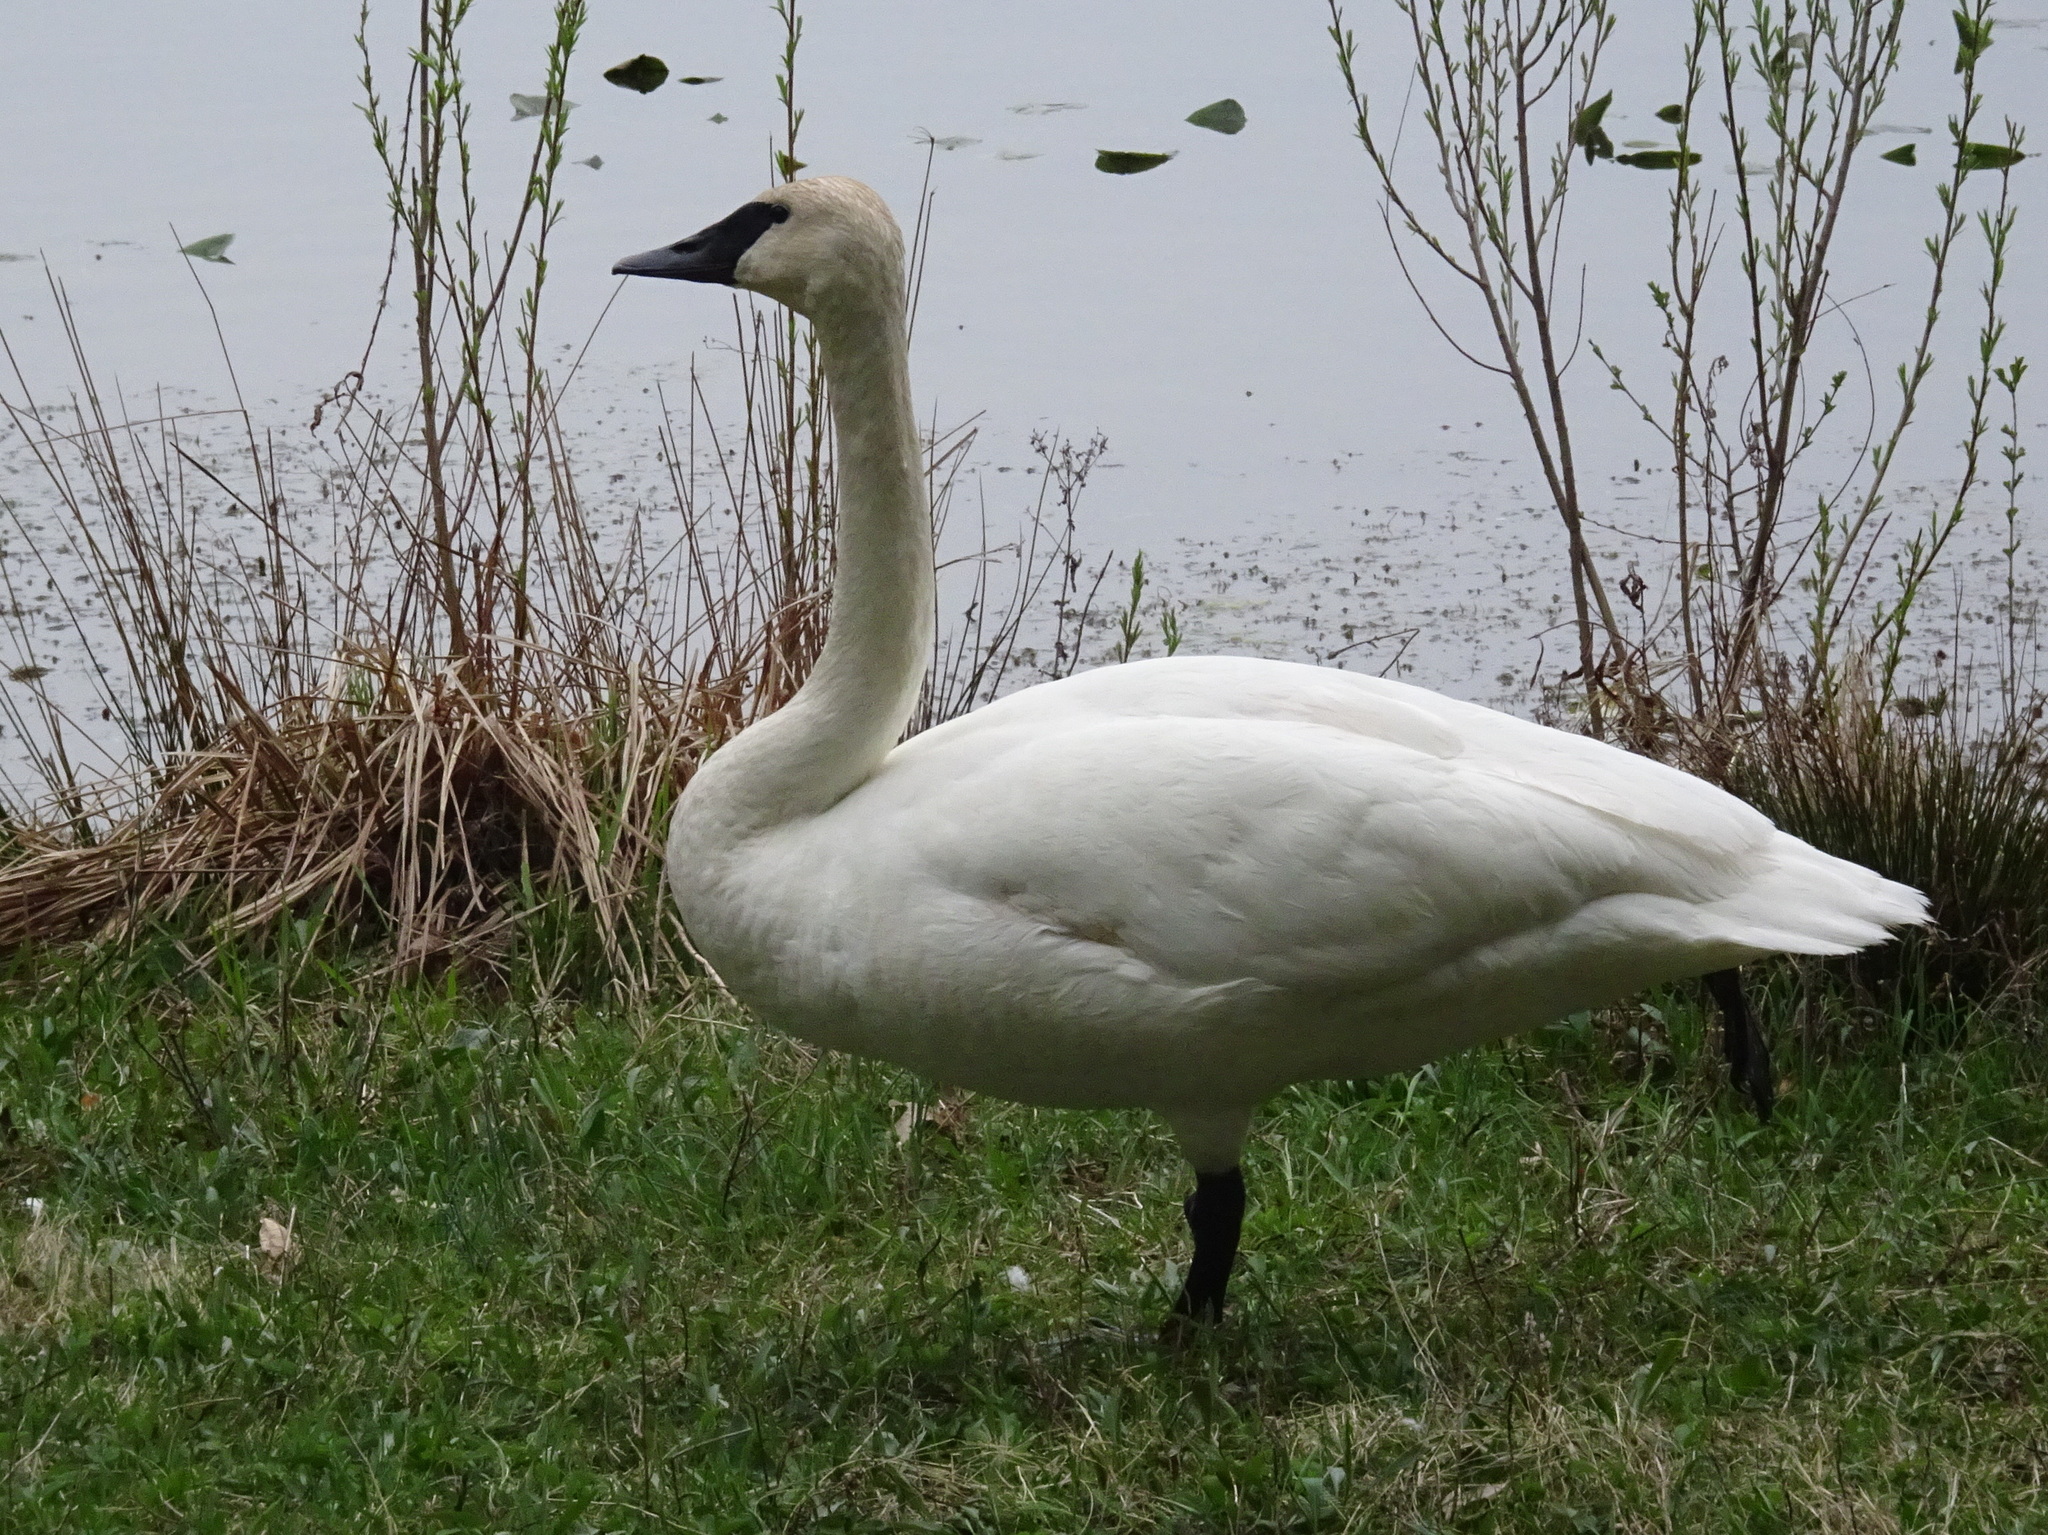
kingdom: Animalia
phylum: Chordata
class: Aves
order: Anseriformes
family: Anatidae
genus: Cygnus
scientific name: Cygnus buccinator
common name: Trumpeter swan
